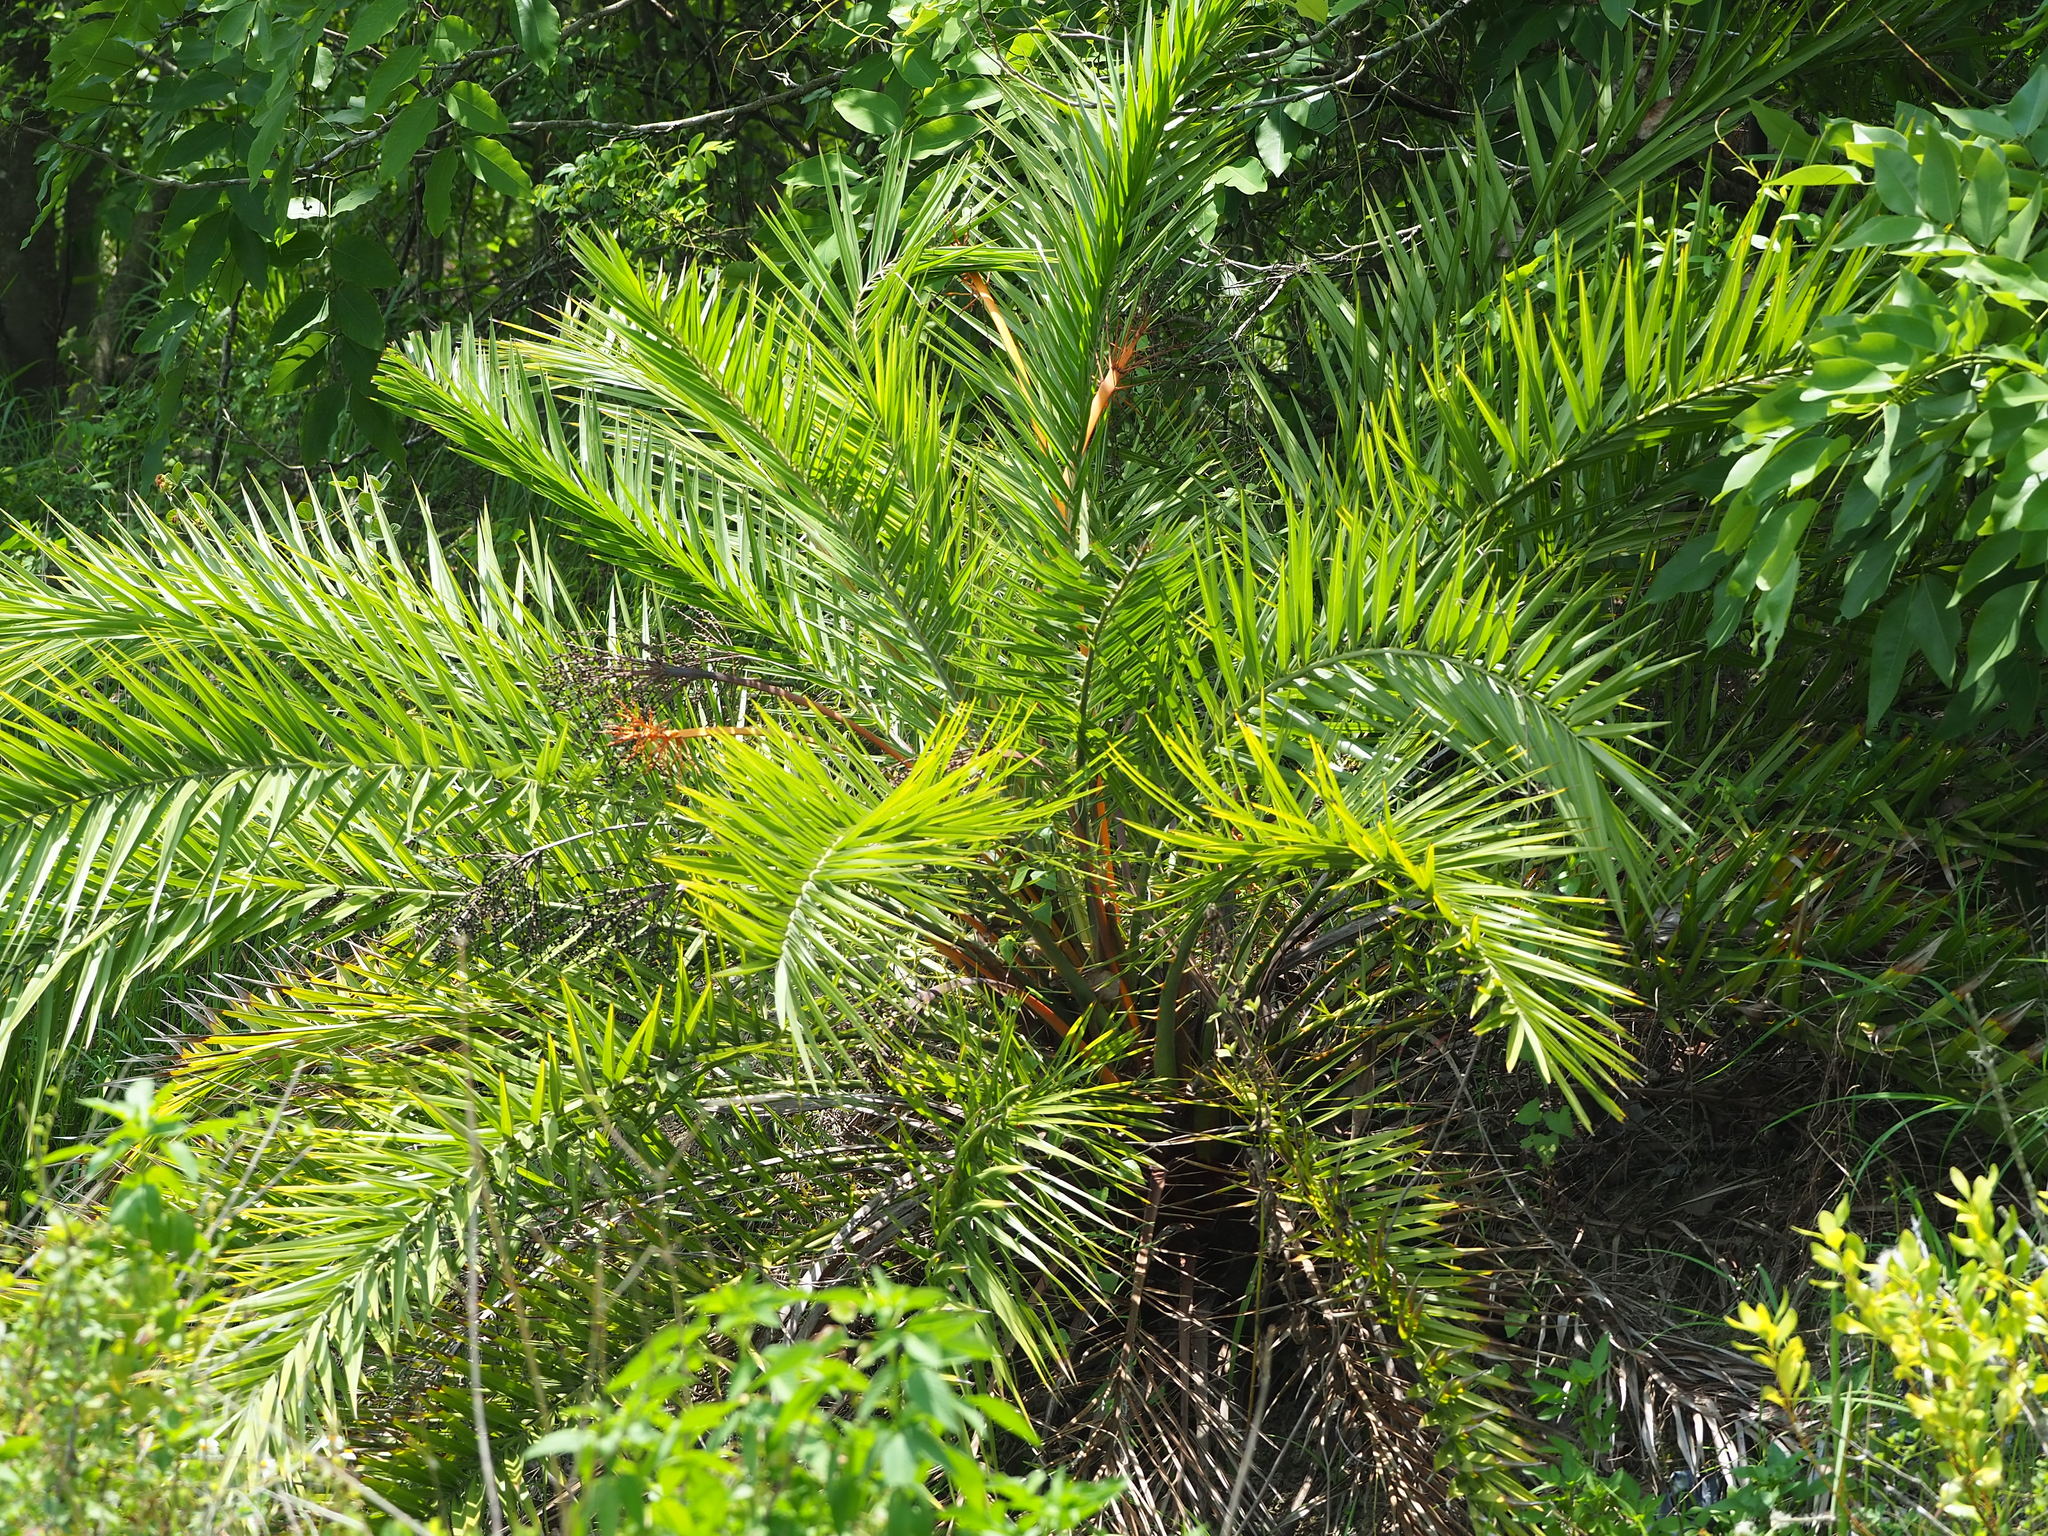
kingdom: Plantae
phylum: Tracheophyta
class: Liliopsida
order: Arecales
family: Arecaceae
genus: Phoenix
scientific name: Phoenix loureiroi
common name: Loureiro's palm
